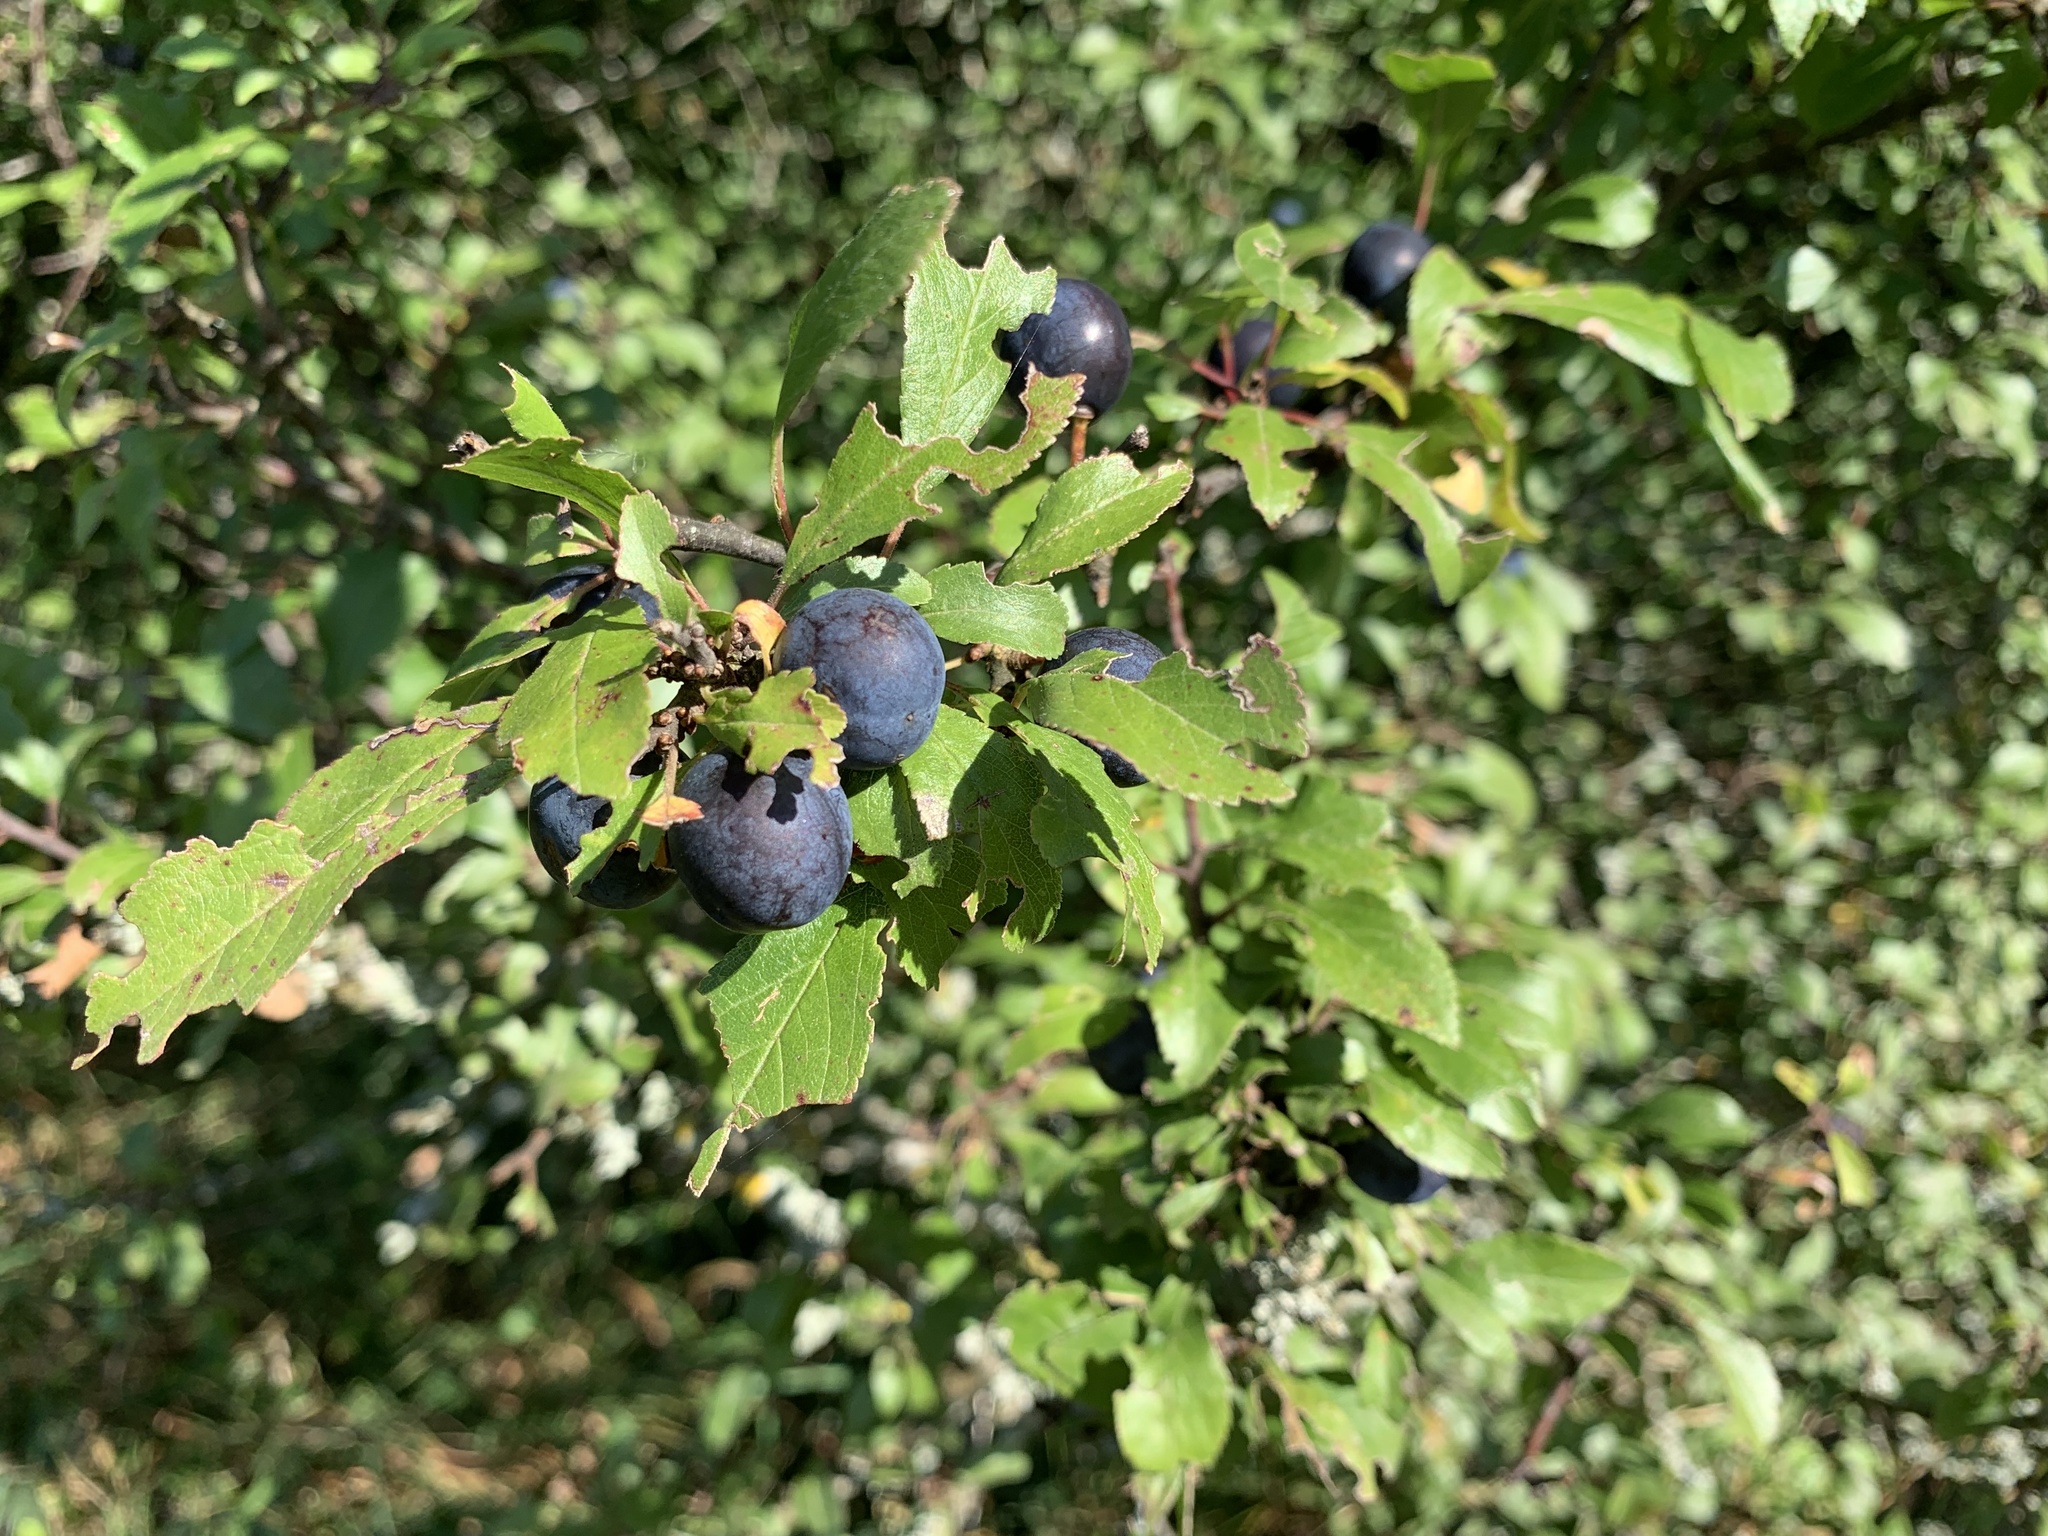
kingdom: Plantae
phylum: Tracheophyta
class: Magnoliopsida
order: Rosales
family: Rosaceae
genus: Prunus
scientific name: Prunus spinosa
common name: Blackthorn
